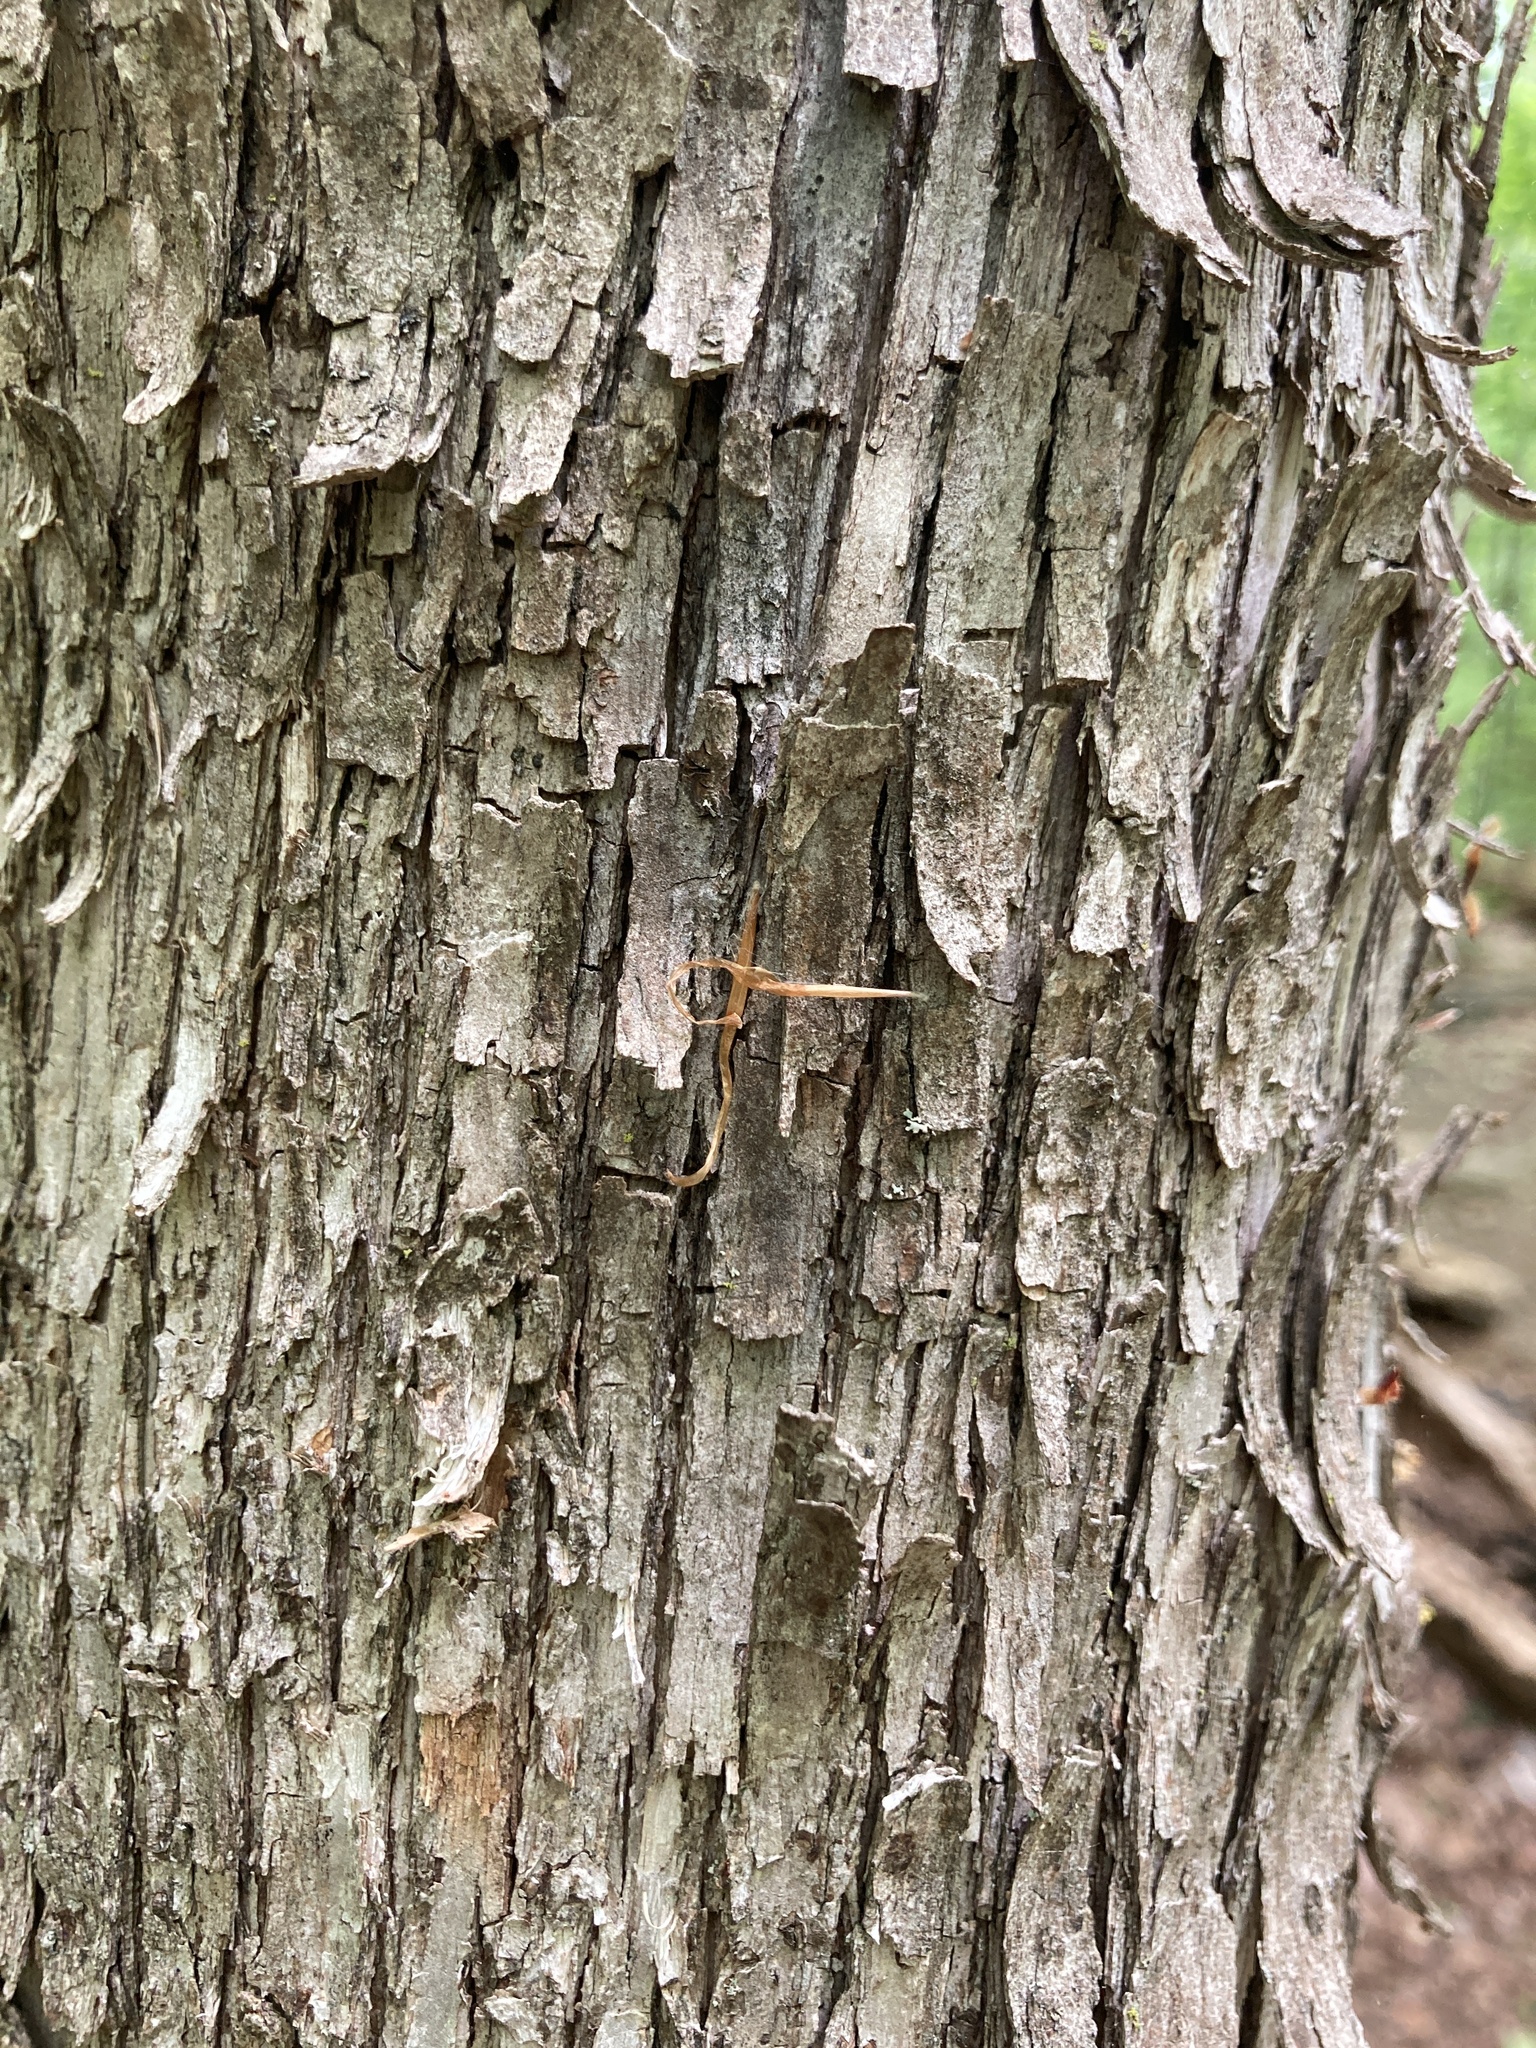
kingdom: Plantae
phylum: Tracheophyta
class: Magnoliopsida
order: Fagales
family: Betulaceae
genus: Ostrya
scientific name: Ostrya virginiana
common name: Ironwood
